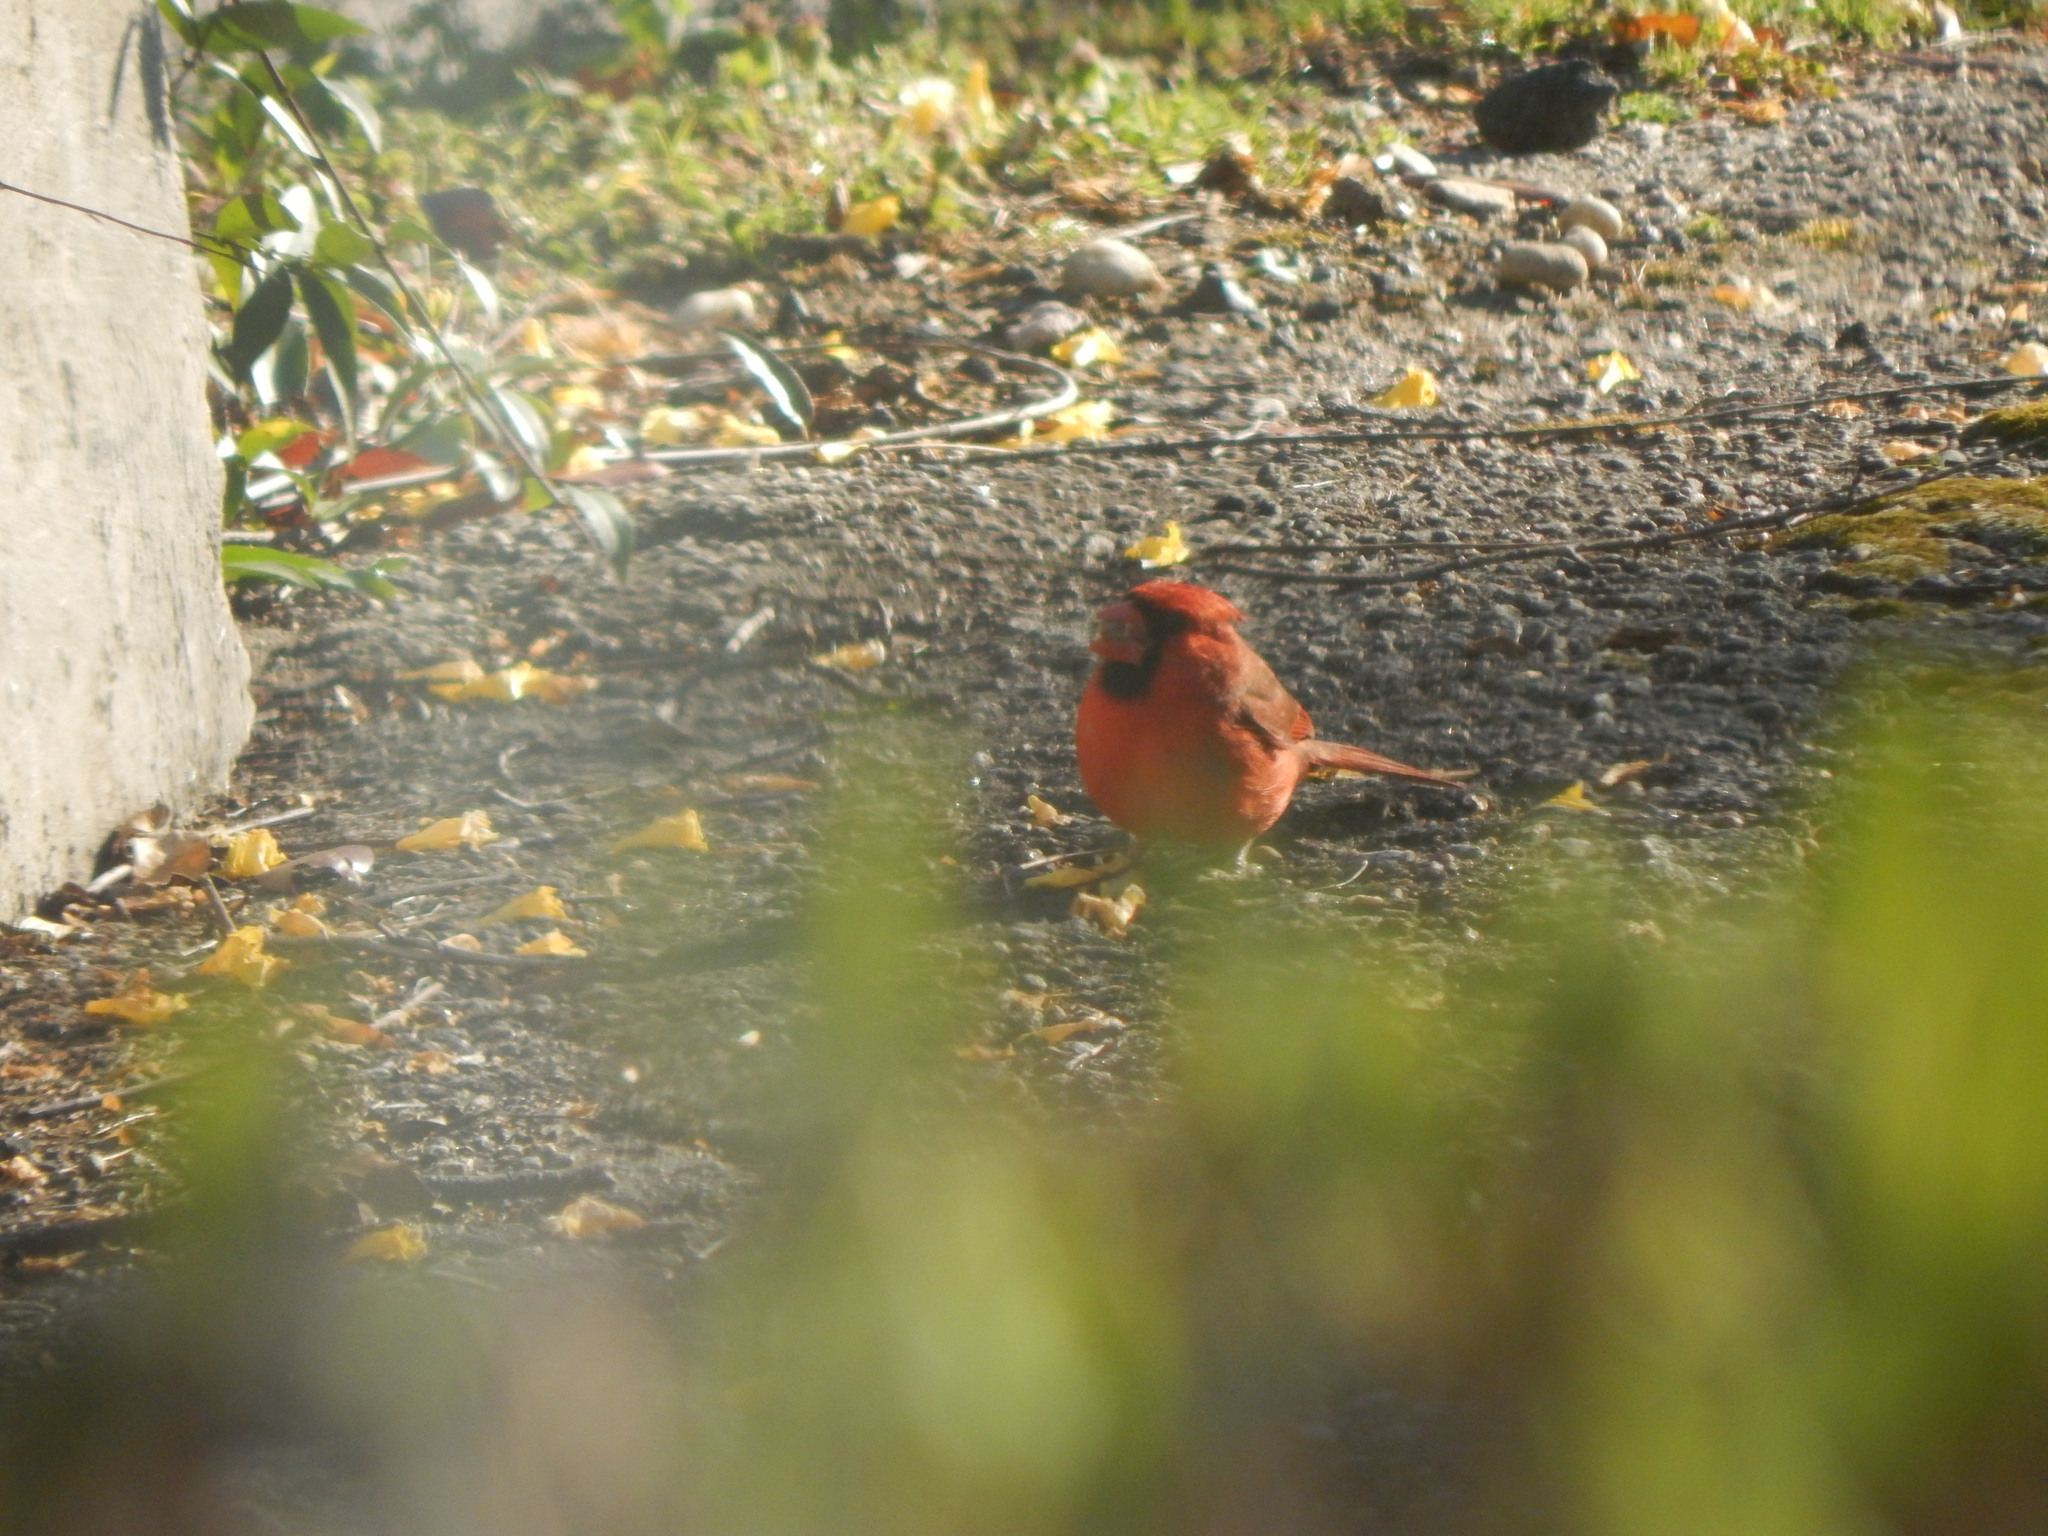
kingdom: Animalia
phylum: Chordata
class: Aves
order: Passeriformes
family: Cardinalidae
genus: Cardinalis
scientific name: Cardinalis cardinalis
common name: Northern cardinal
